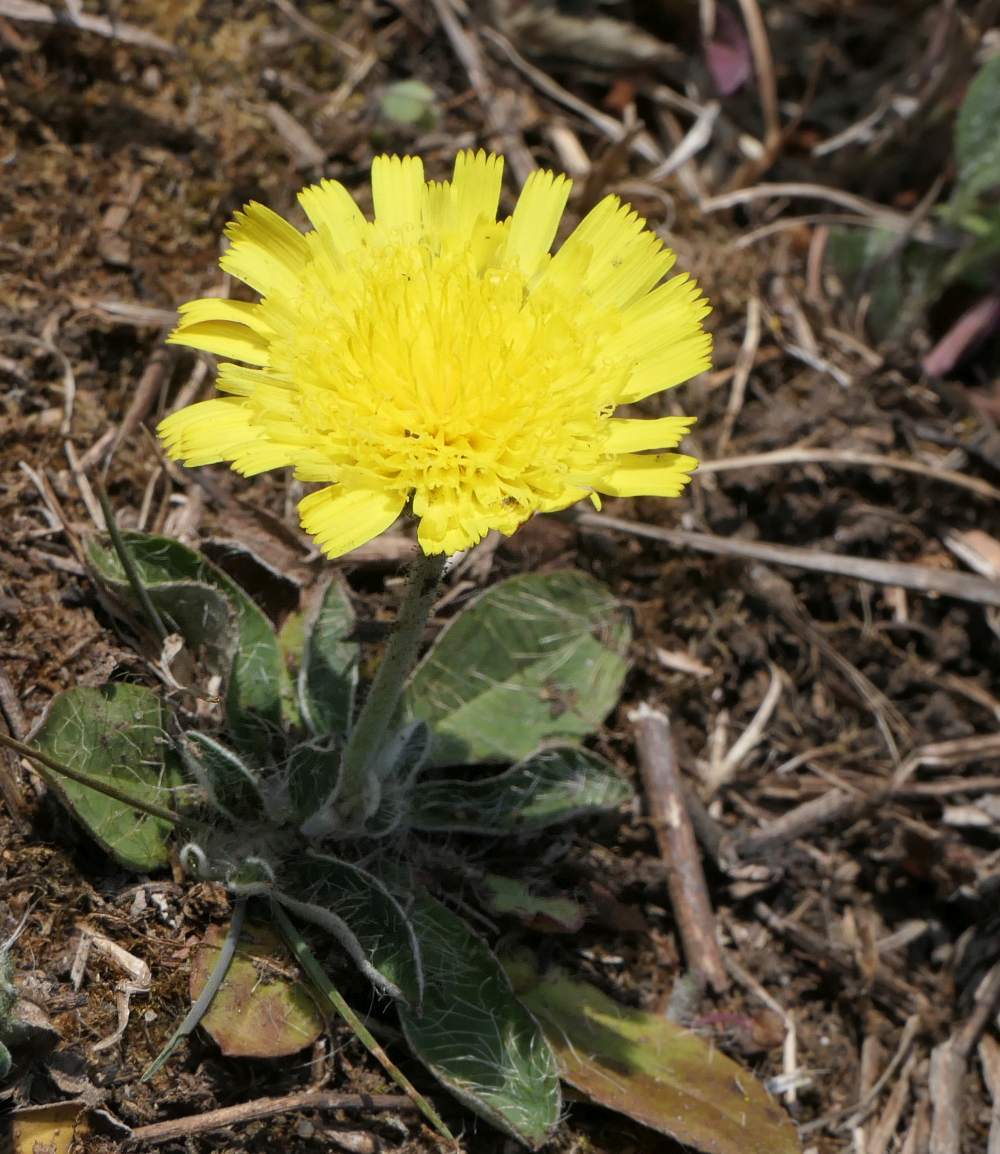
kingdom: Plantae
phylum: Tracheophyta
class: Magnoliopsida
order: Asterales
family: Asteraceae
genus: Pilosella
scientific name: Pilosella officinarum
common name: Mouse-ear hawkweed
